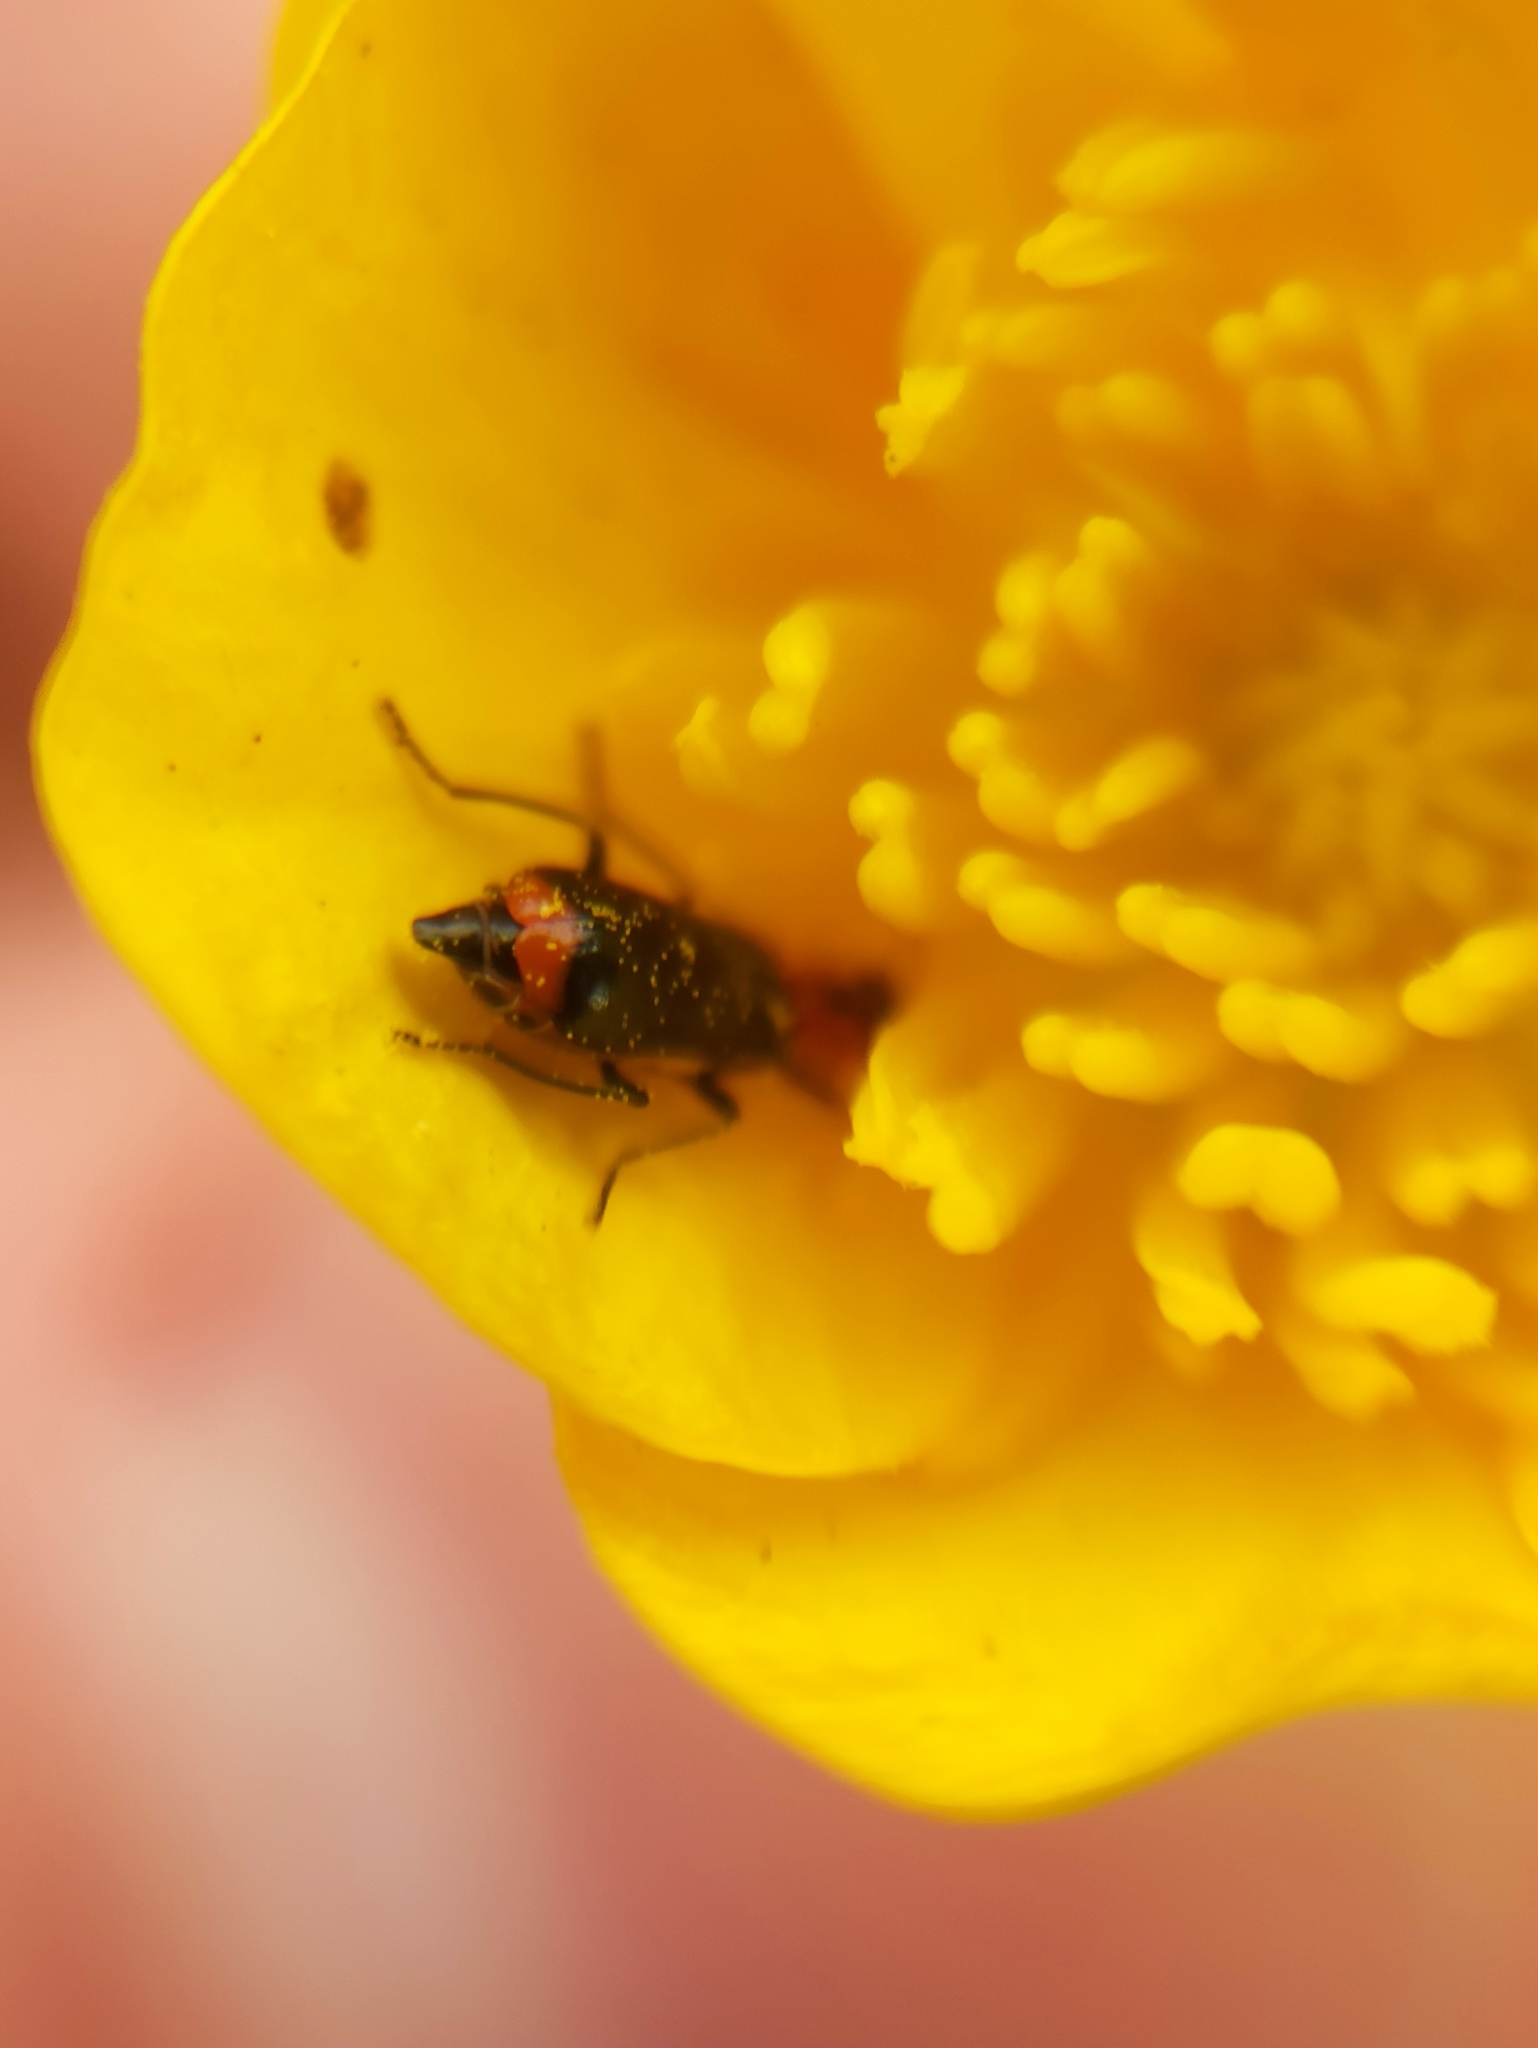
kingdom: Animalia
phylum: Arthropoda
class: Insecta
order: Coleoptera
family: Malachiidae
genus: Attalus
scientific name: Attalus minimus
